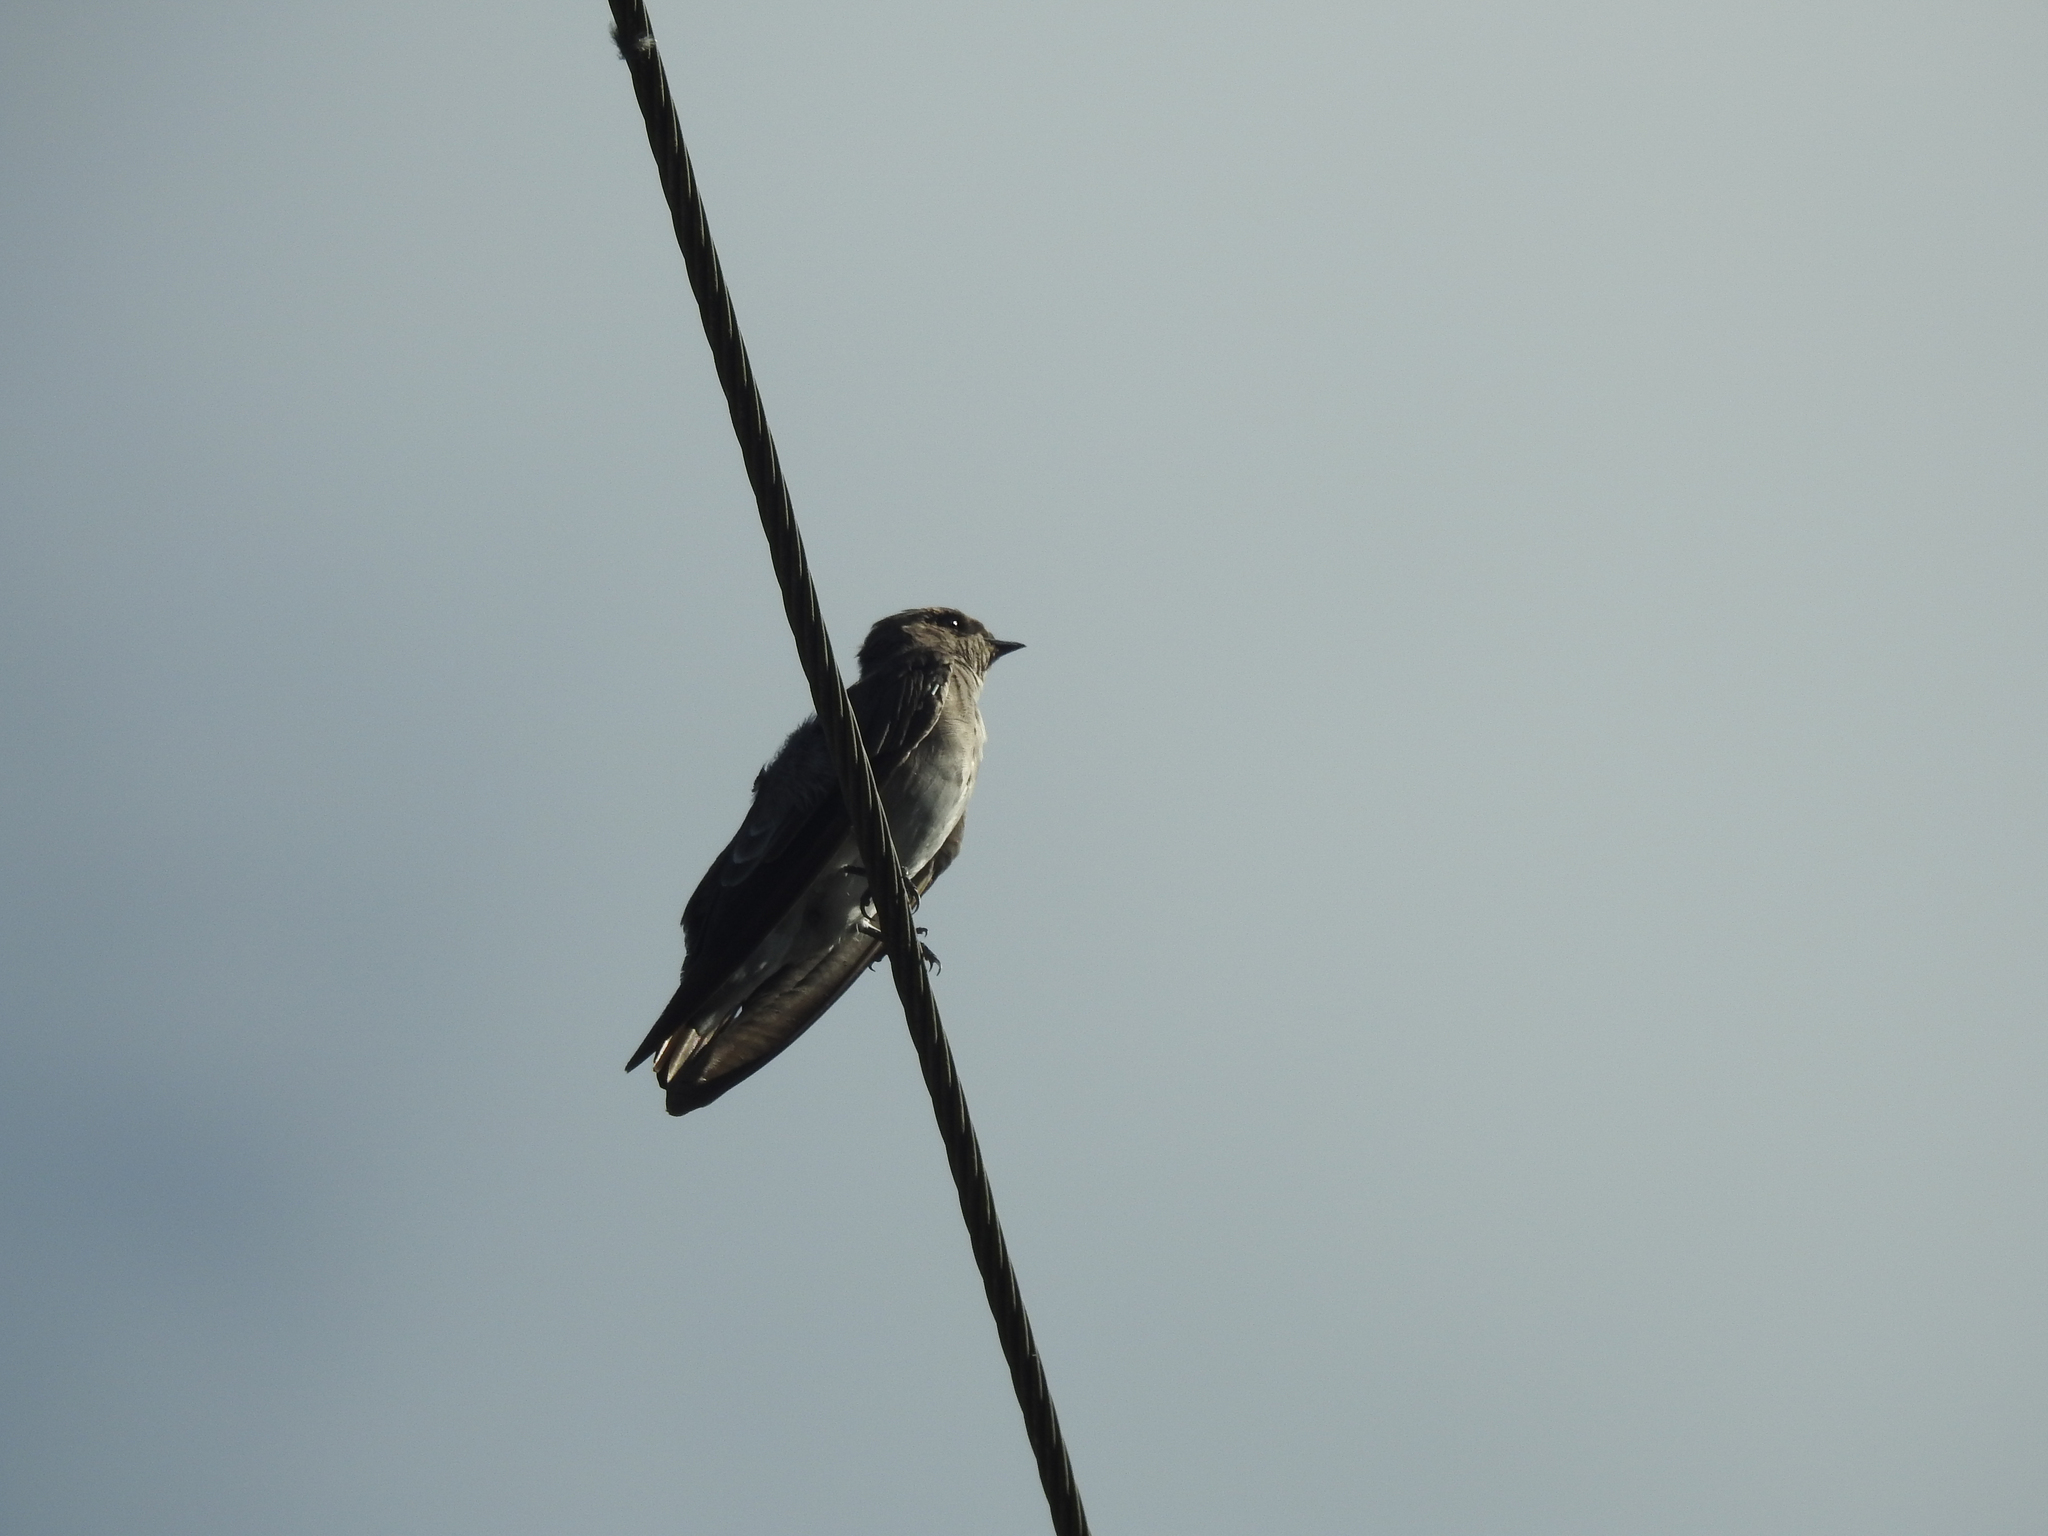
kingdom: Animalia
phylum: Chordata
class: Aves
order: Passeriformes
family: Hirundinidae
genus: Stelgidopteryx
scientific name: Stelgidopteryx serripennis
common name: Northern rough-winged swallow
